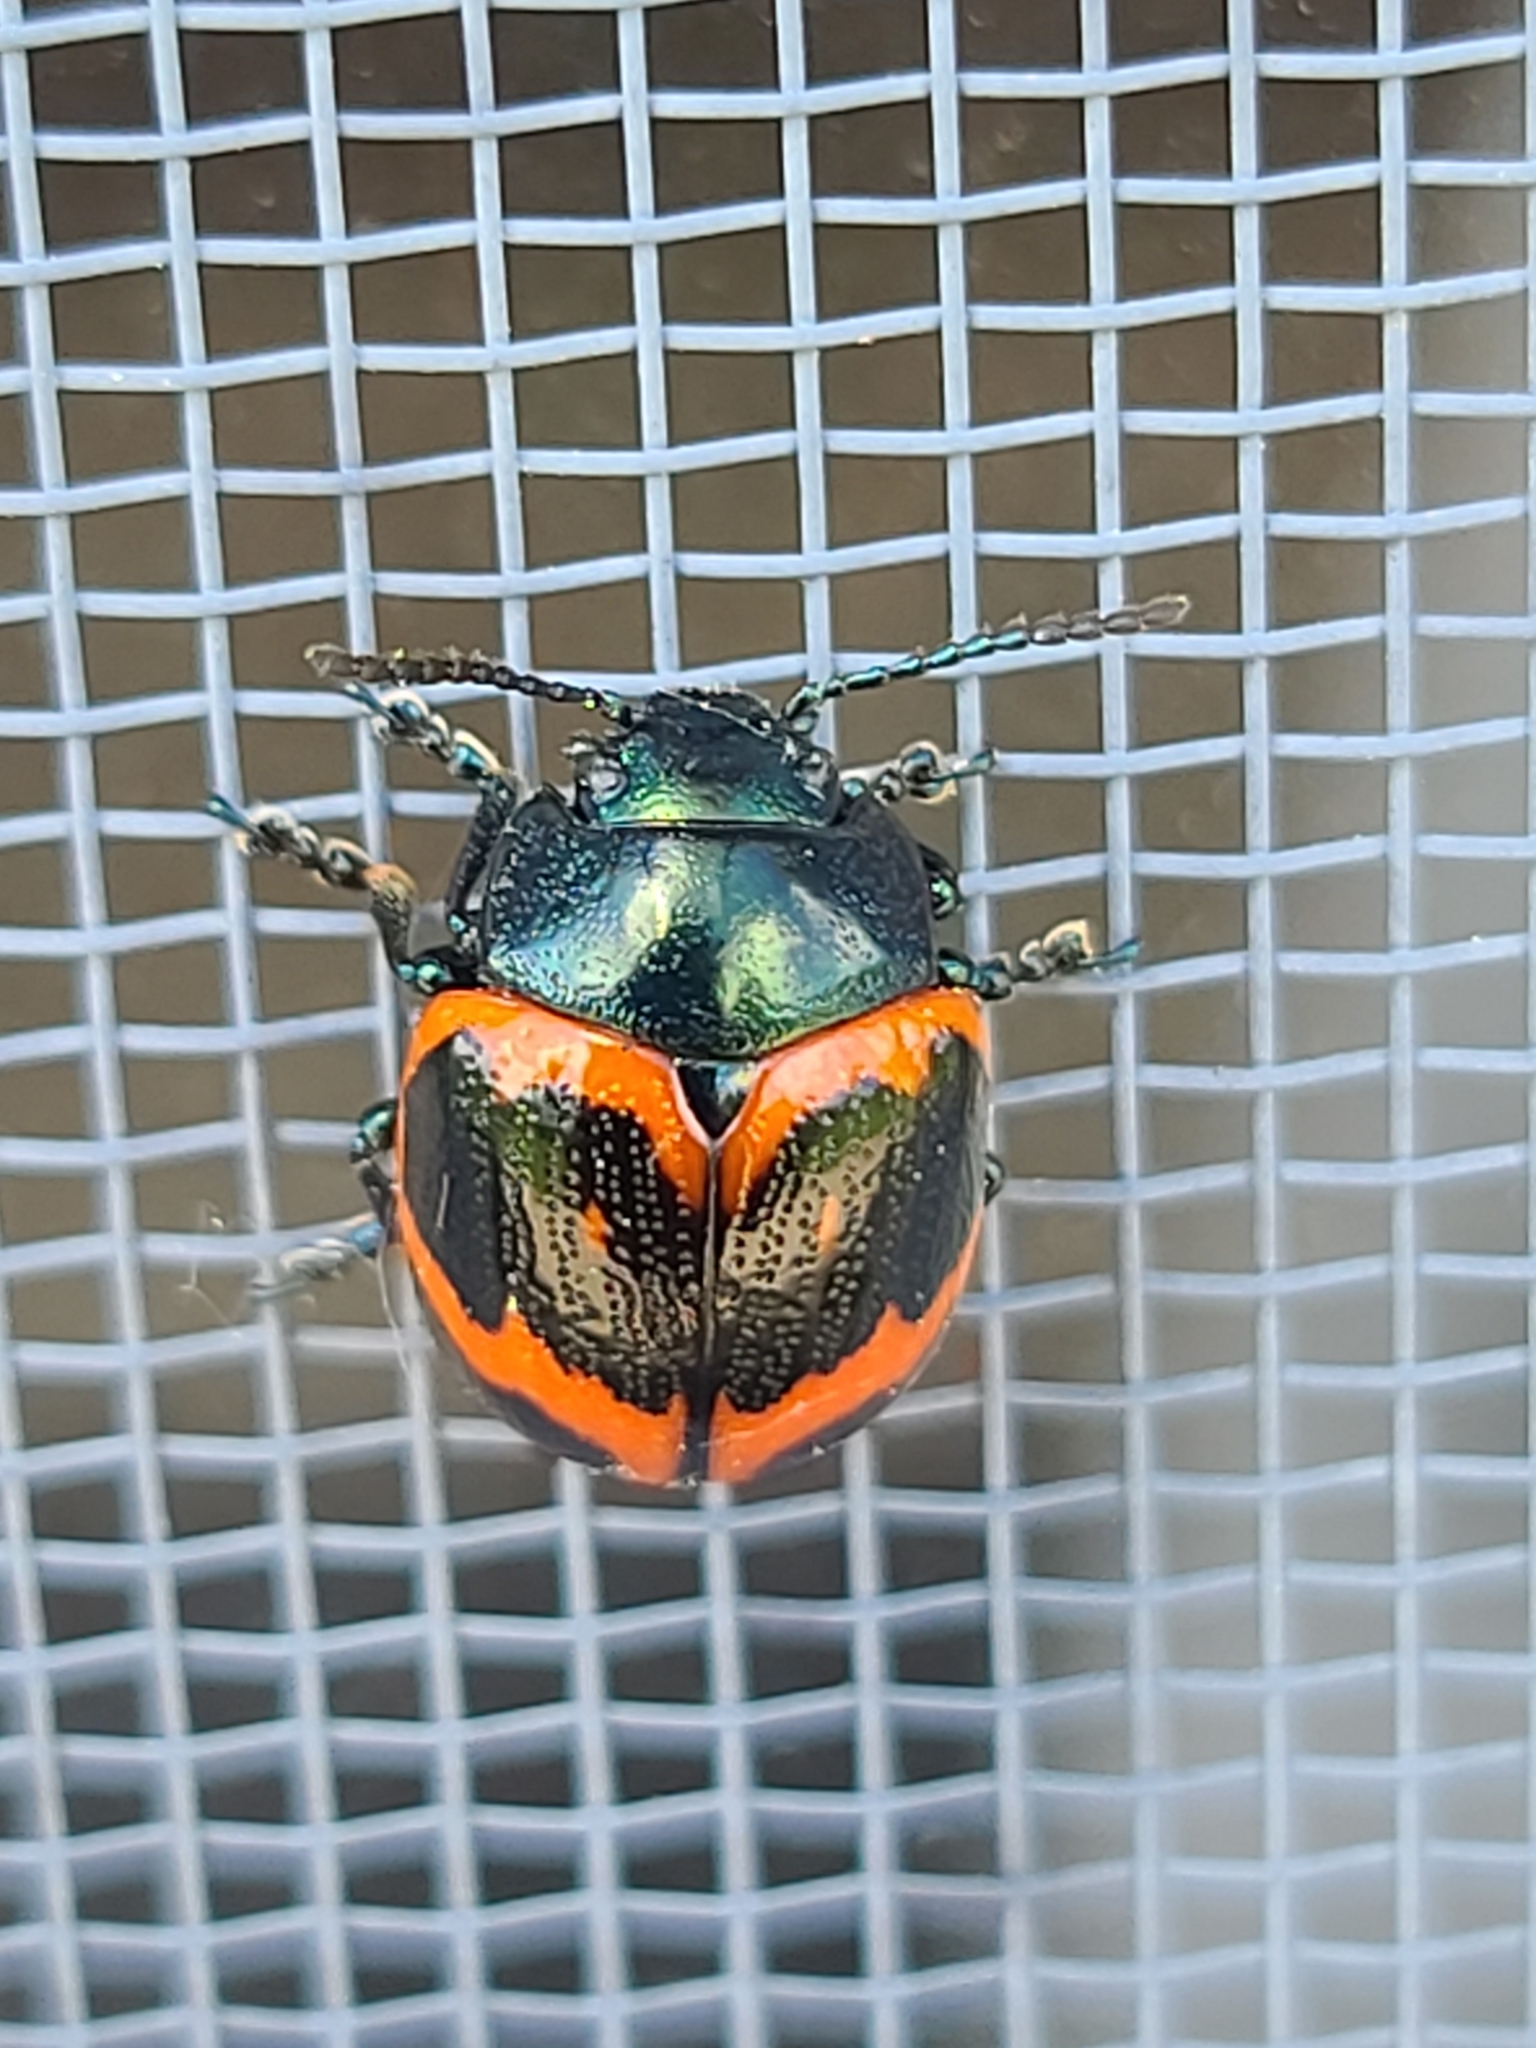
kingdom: Animalia
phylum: Arthropoda
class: Insecta
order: Coleoptera
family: Chrysomelidae
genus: Labidomera
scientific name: Labidomera clivicollis
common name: Swamp milkweed leaf beetle
